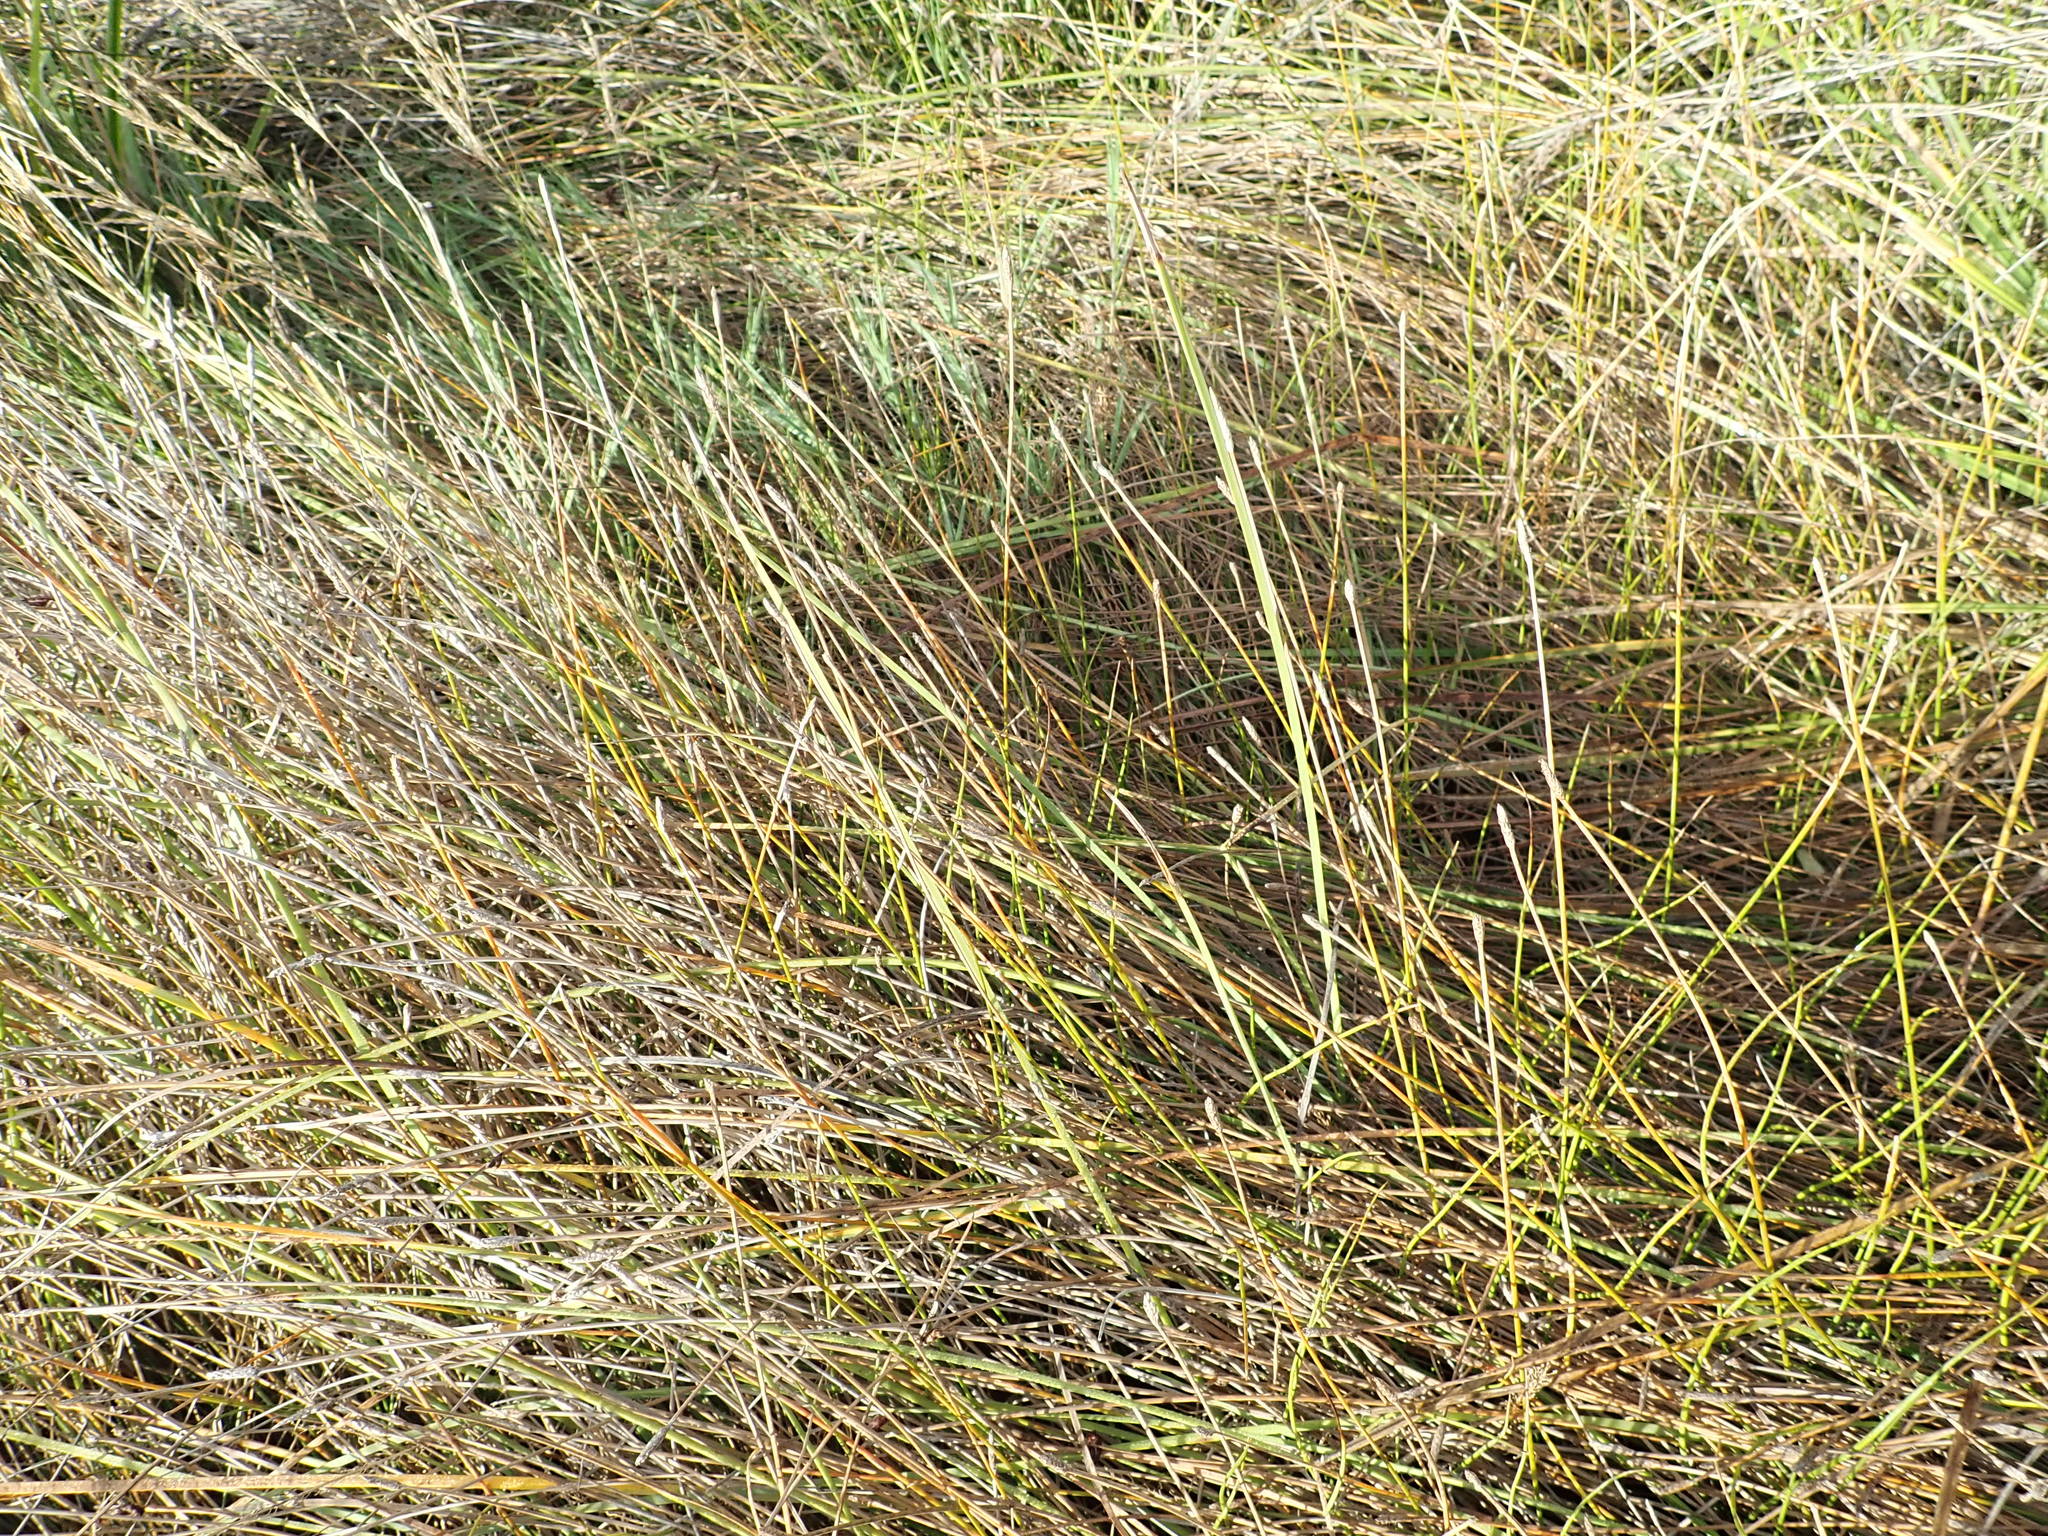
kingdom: Plantae
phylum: Tracheophyta
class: Liliopsida
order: Poales
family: Cyperaceae
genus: Eleocharis
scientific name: Eleocharis acuta
